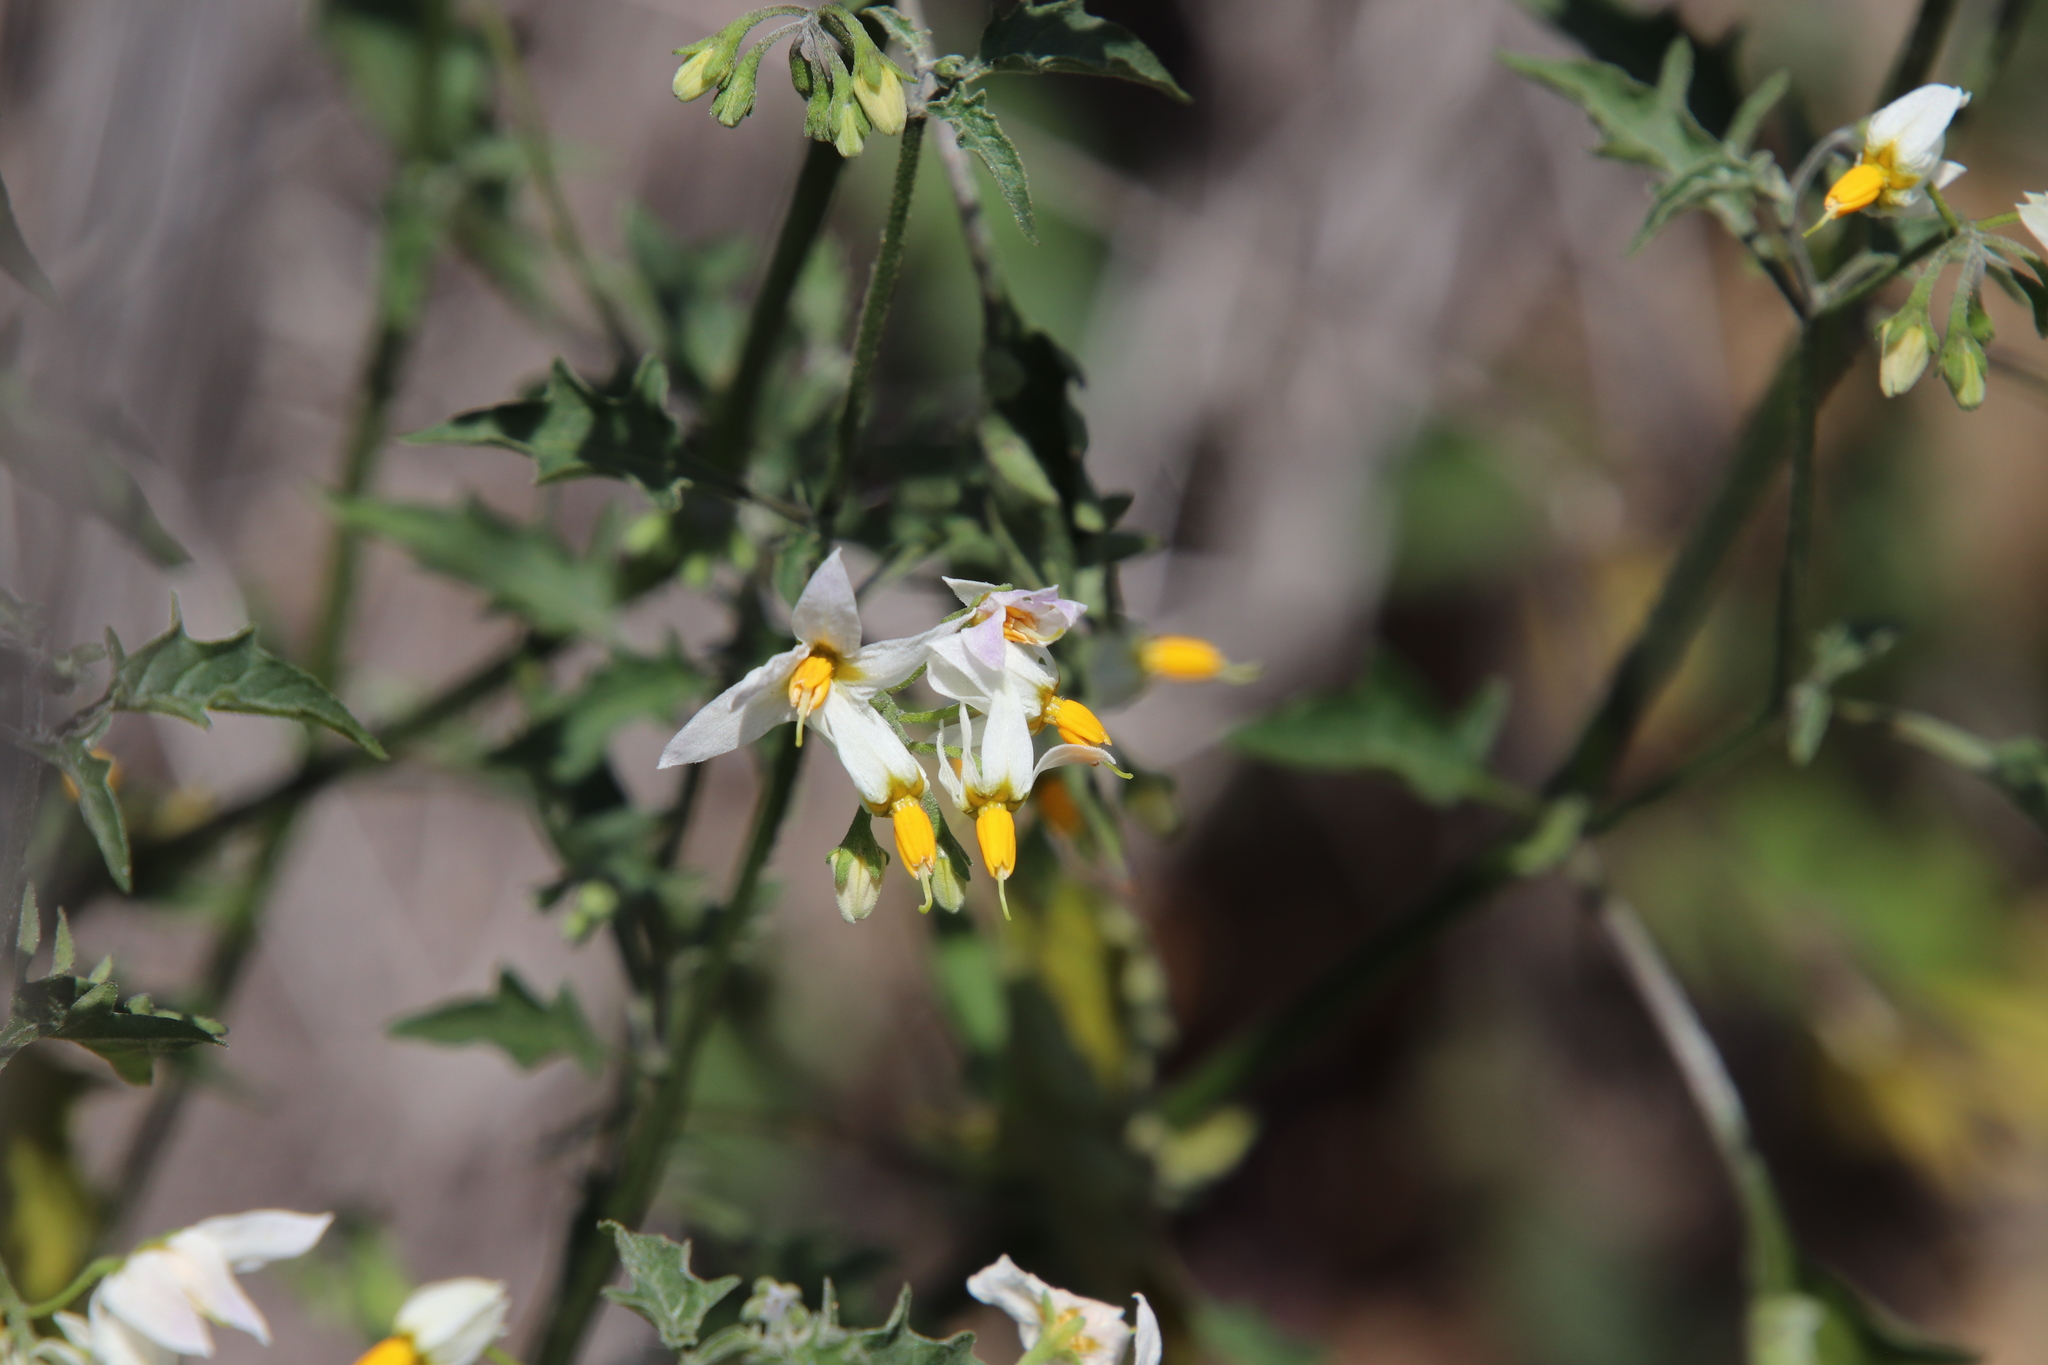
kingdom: Plantae
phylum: Tracheophyta
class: Magnoliopsida
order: Solanales
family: Solanaceae
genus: Solanum
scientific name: Solanum douglasii
